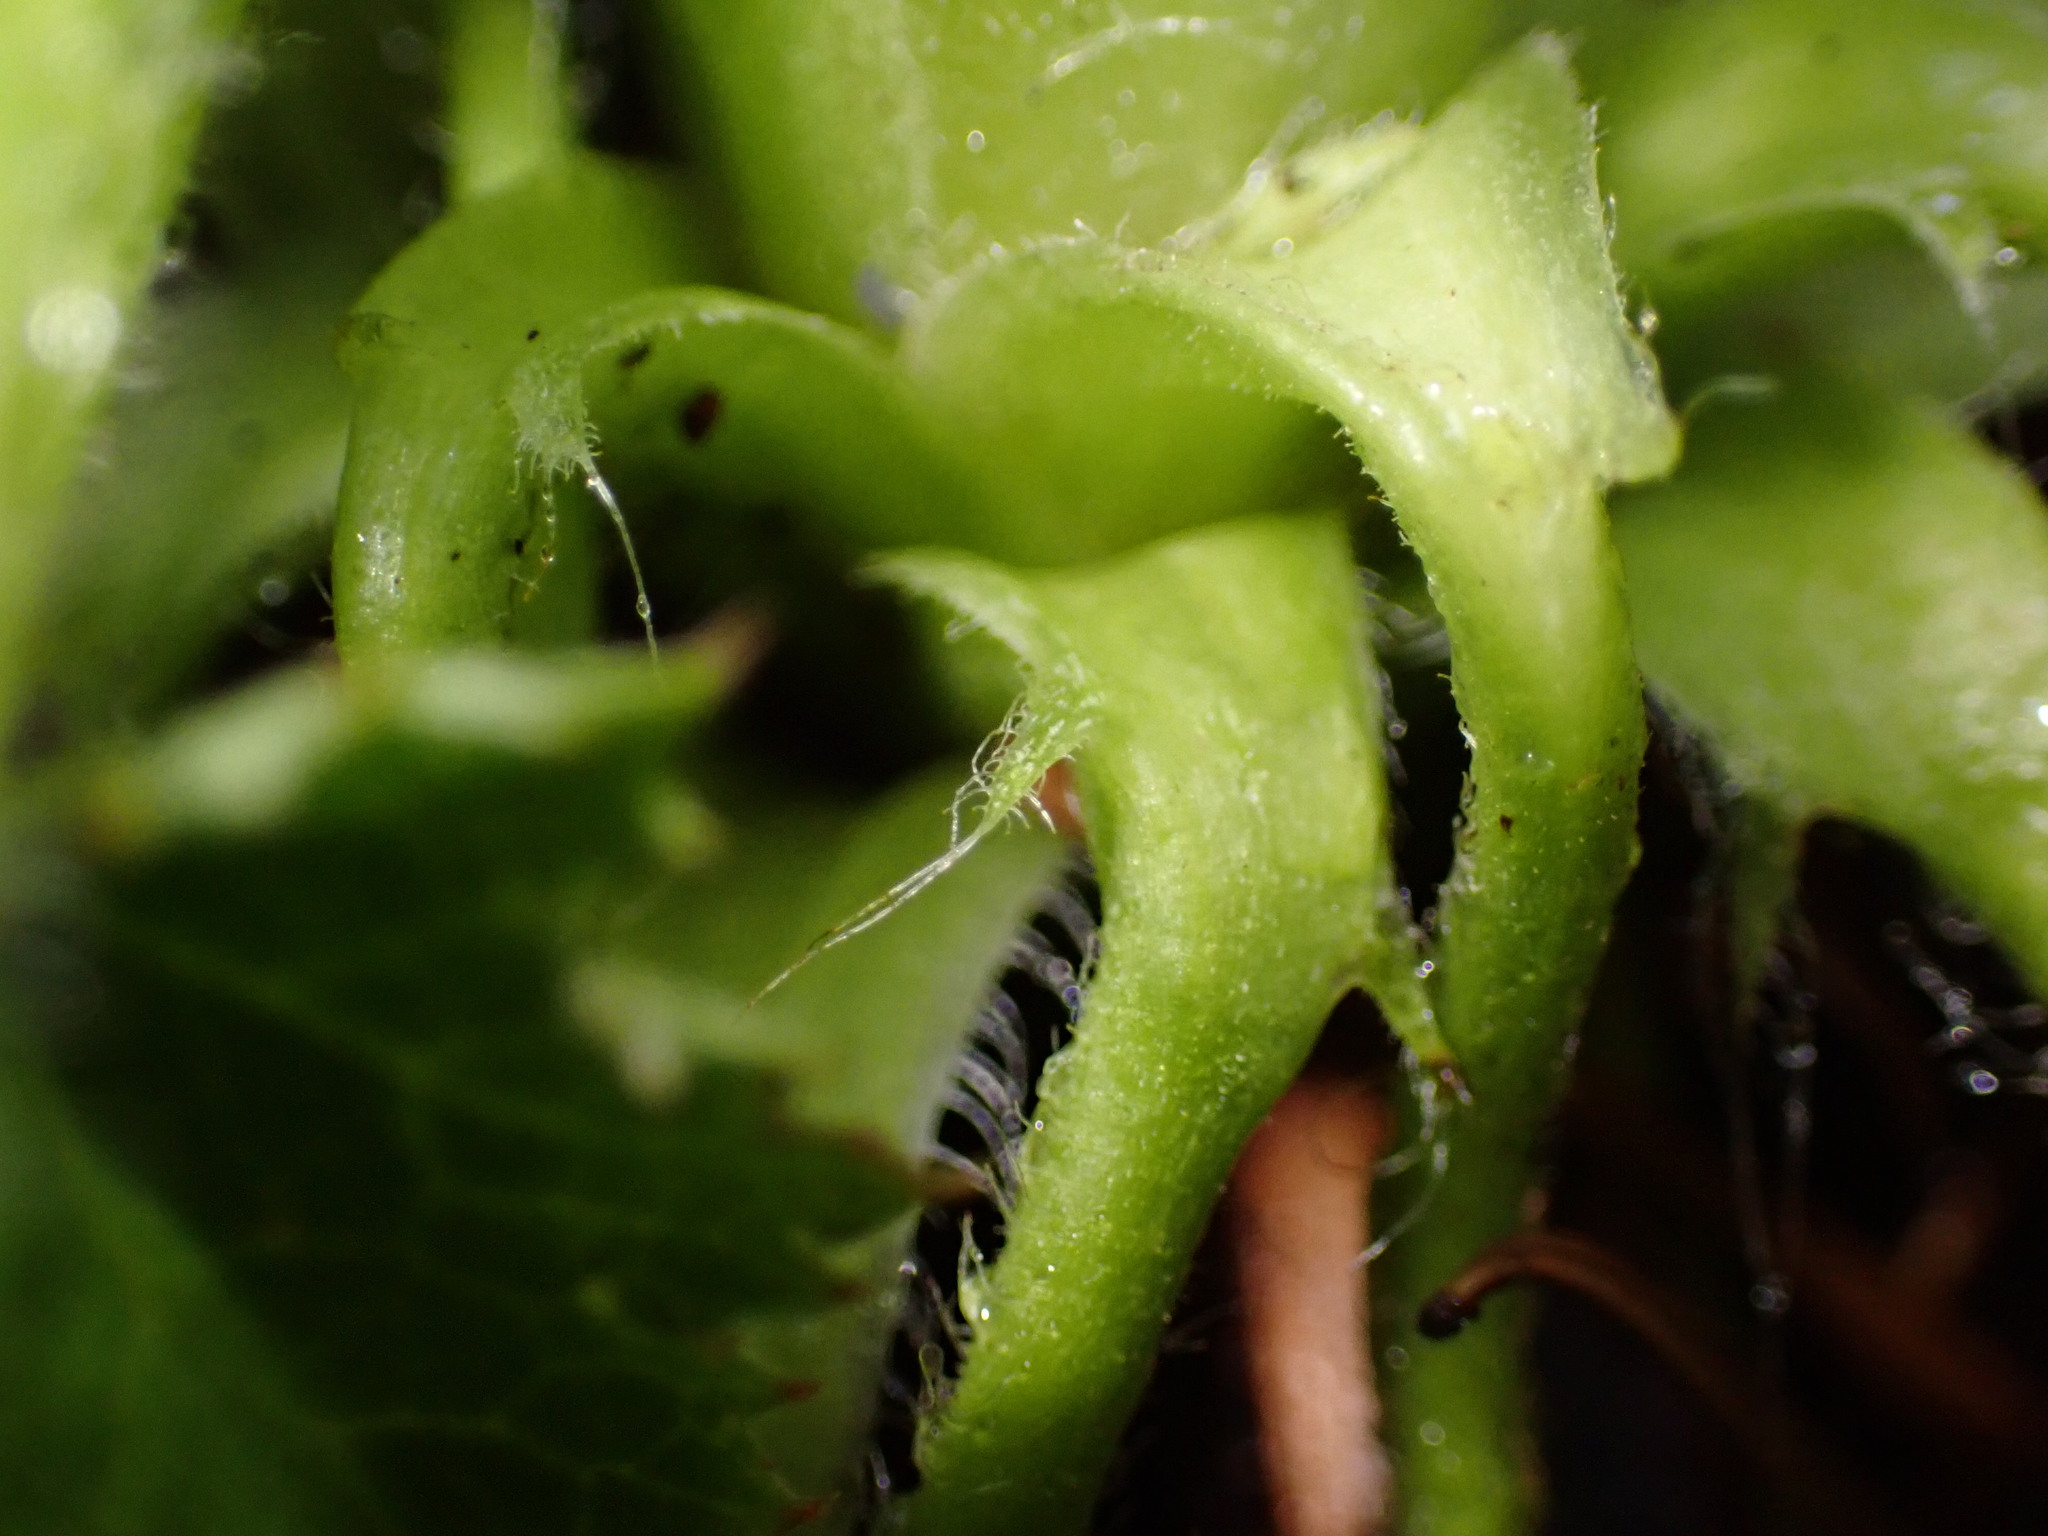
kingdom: Plantae
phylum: Tracheophyta
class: Magnoliopsida
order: Saxifragales
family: Saxifragaceae
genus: Heuchera
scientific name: Heuchera micrantha
